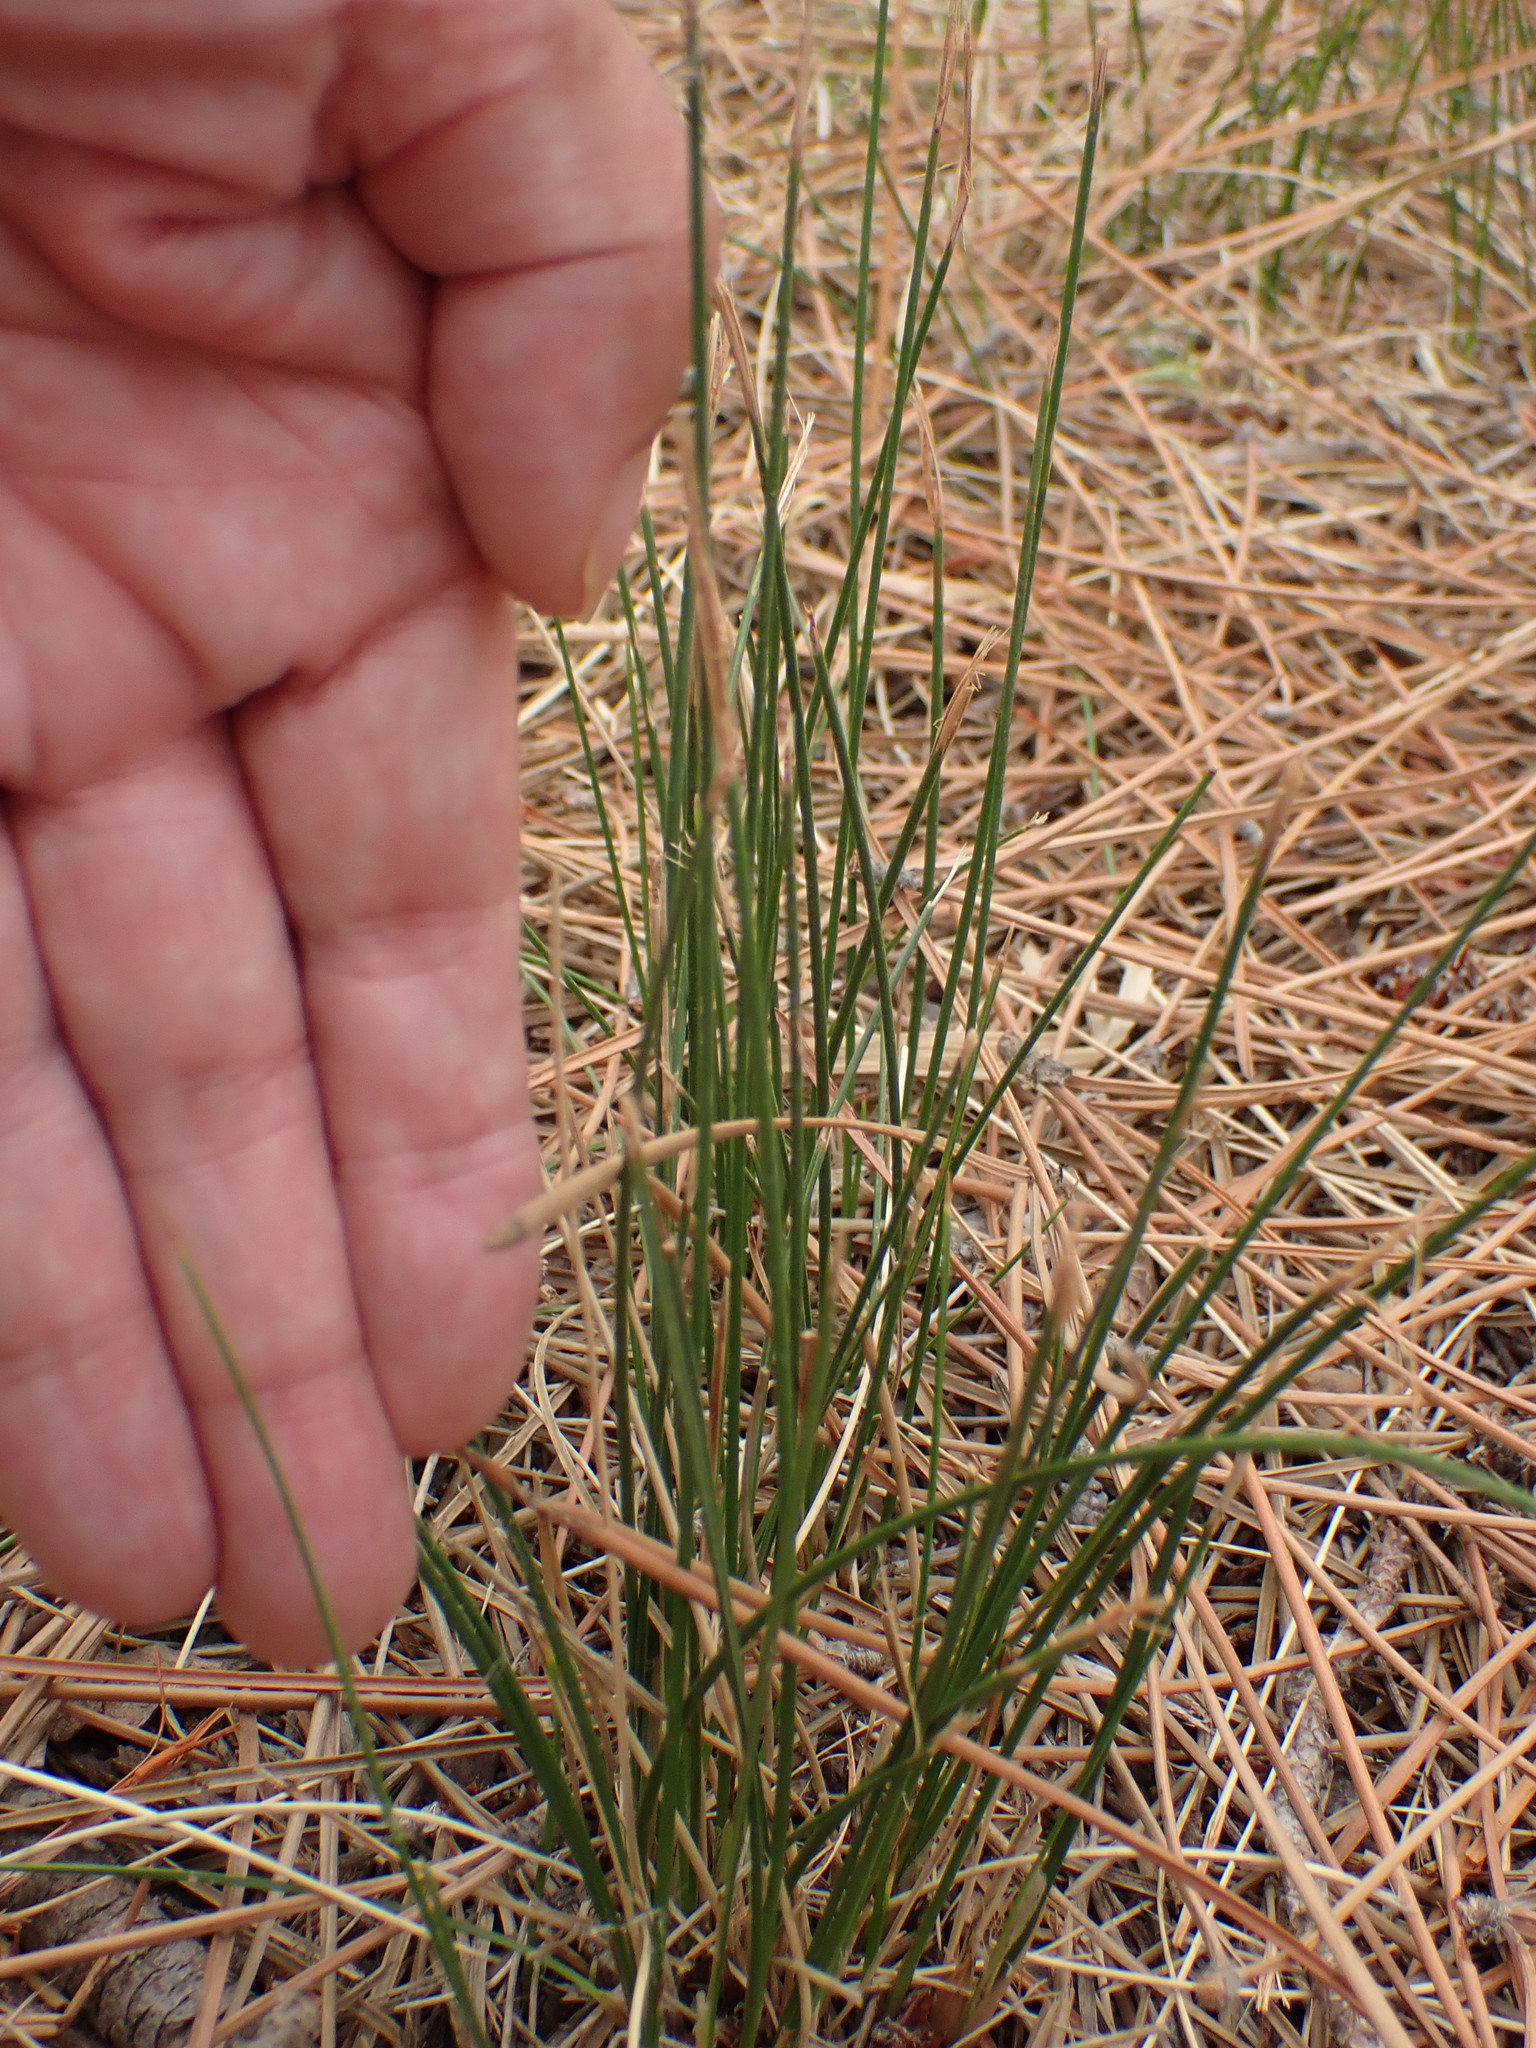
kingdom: Plantae
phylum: Tracheophyta
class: Liliopsida
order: Poales
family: Cyperaceae
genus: Scirpoides
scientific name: Scirpoides holoschoenus
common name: Round-headed club-rush
